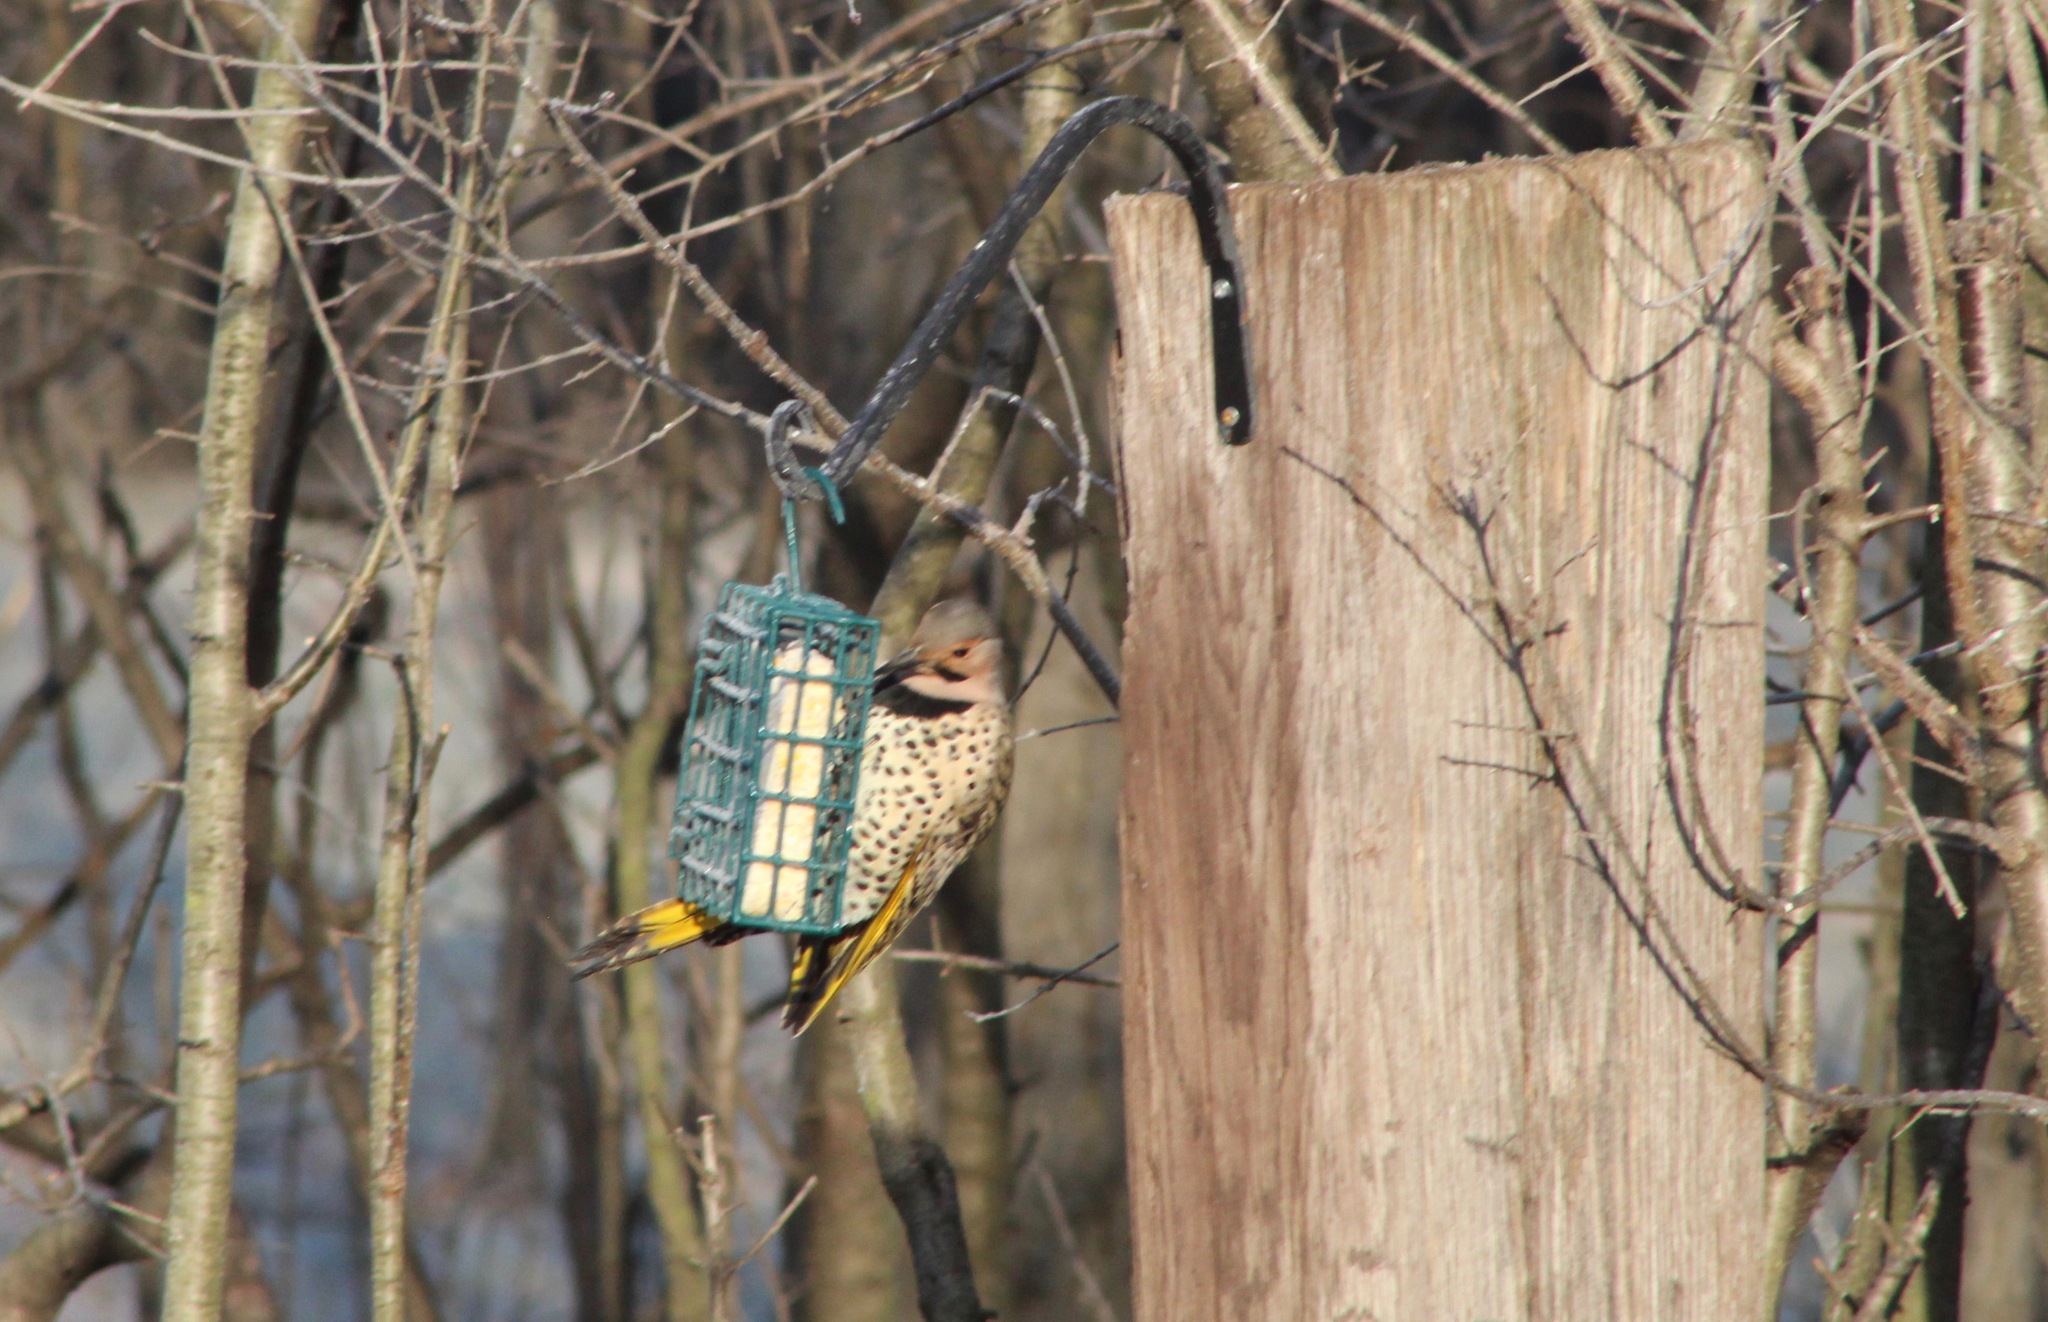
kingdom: Animalia
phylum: Chordata
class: Aves
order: Piciformes
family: Picidae
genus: Colaptes
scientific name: Colaptes auratus
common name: Northern flicker
